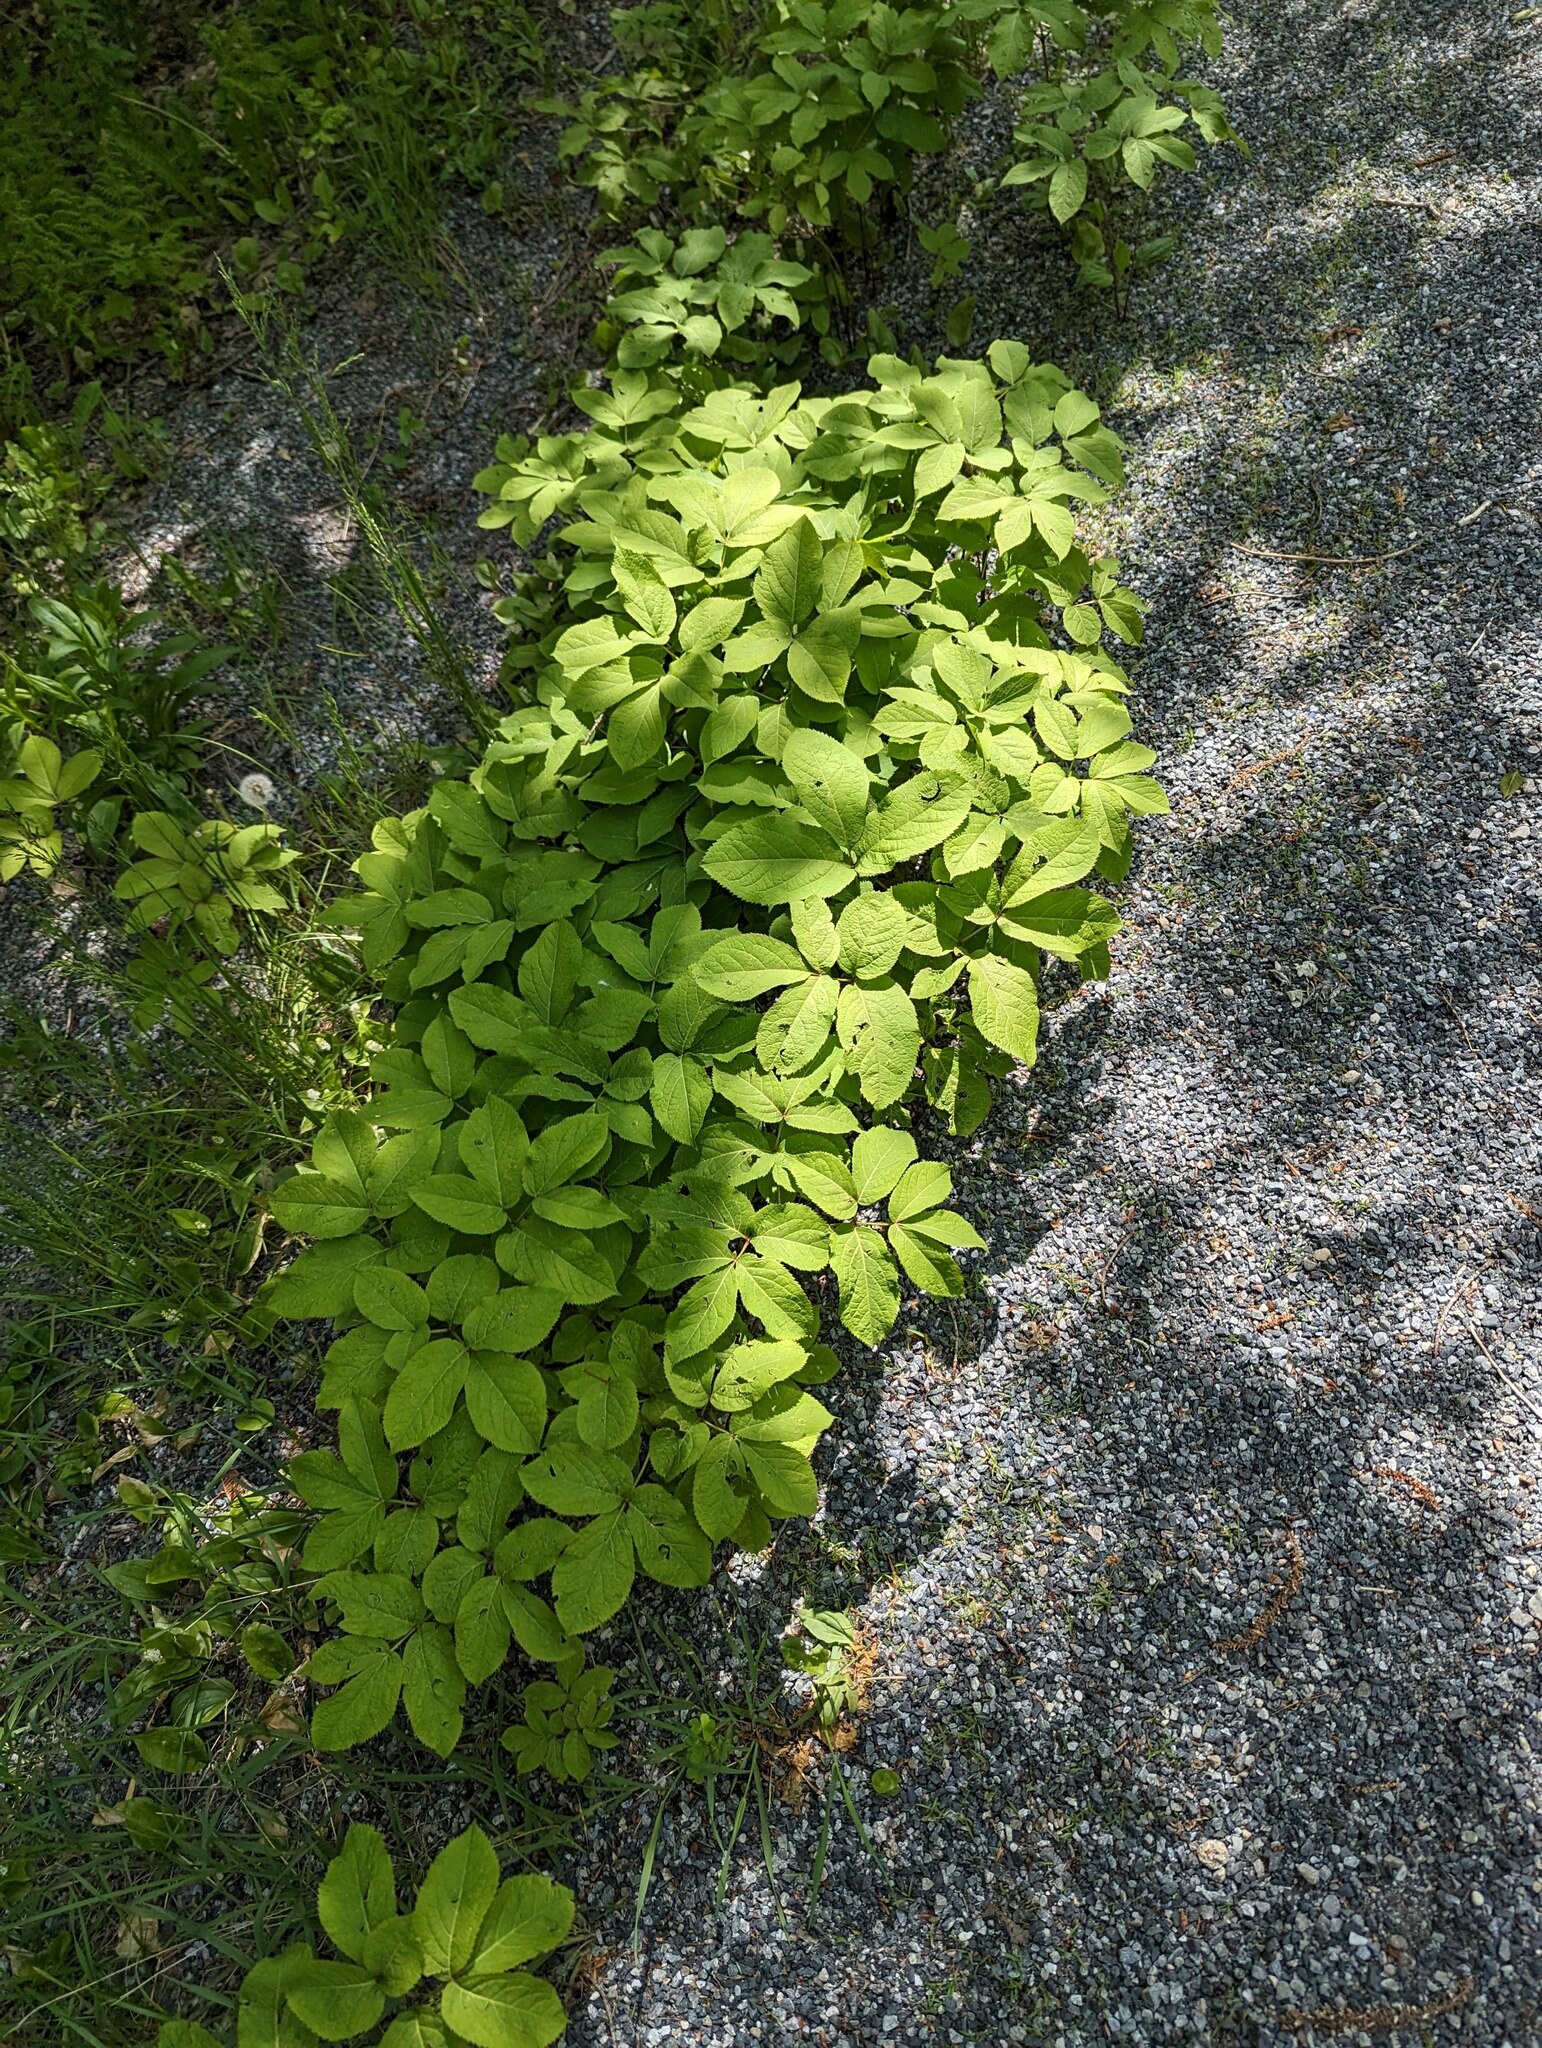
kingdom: Plantae
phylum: Tracheophyta
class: Magnoliopsida
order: Apiales
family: Araliaceae
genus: Aralia
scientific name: Aralia nudicaulis
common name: Wild sarsaparilla
